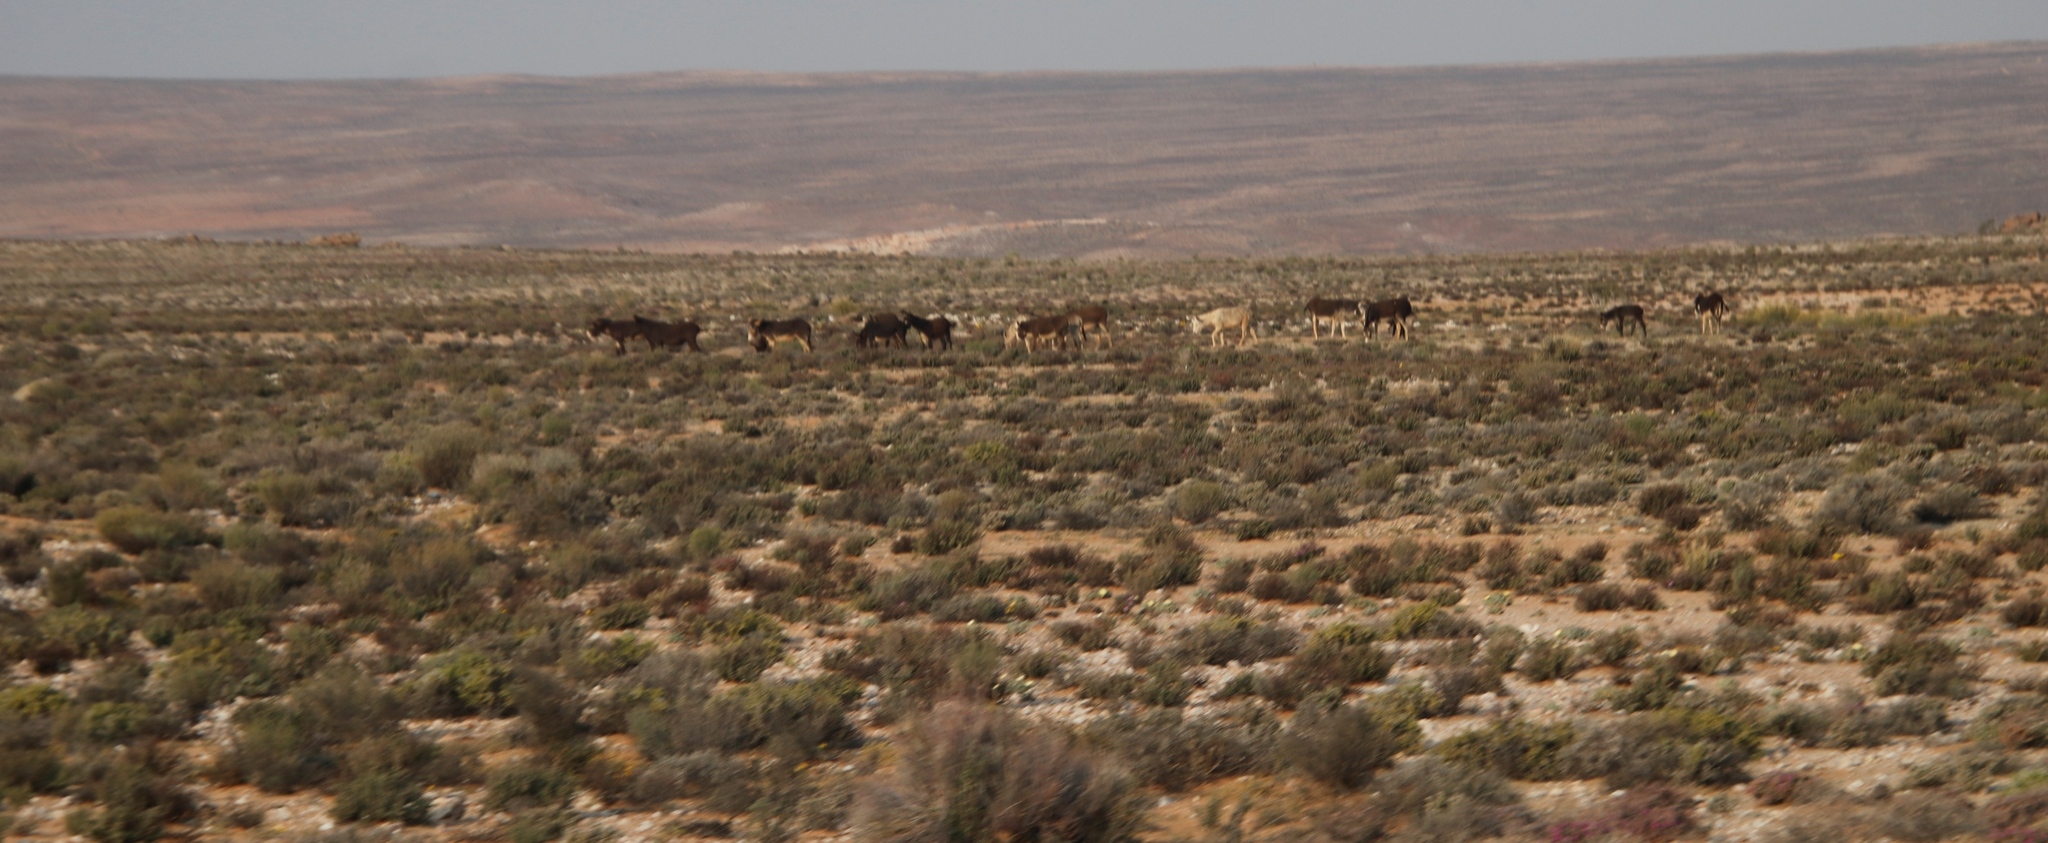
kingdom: Animalia
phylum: Chordata
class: Mammalia
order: Perissodactyla
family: Equidae
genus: Equus
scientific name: Equus asinus
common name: Ass
